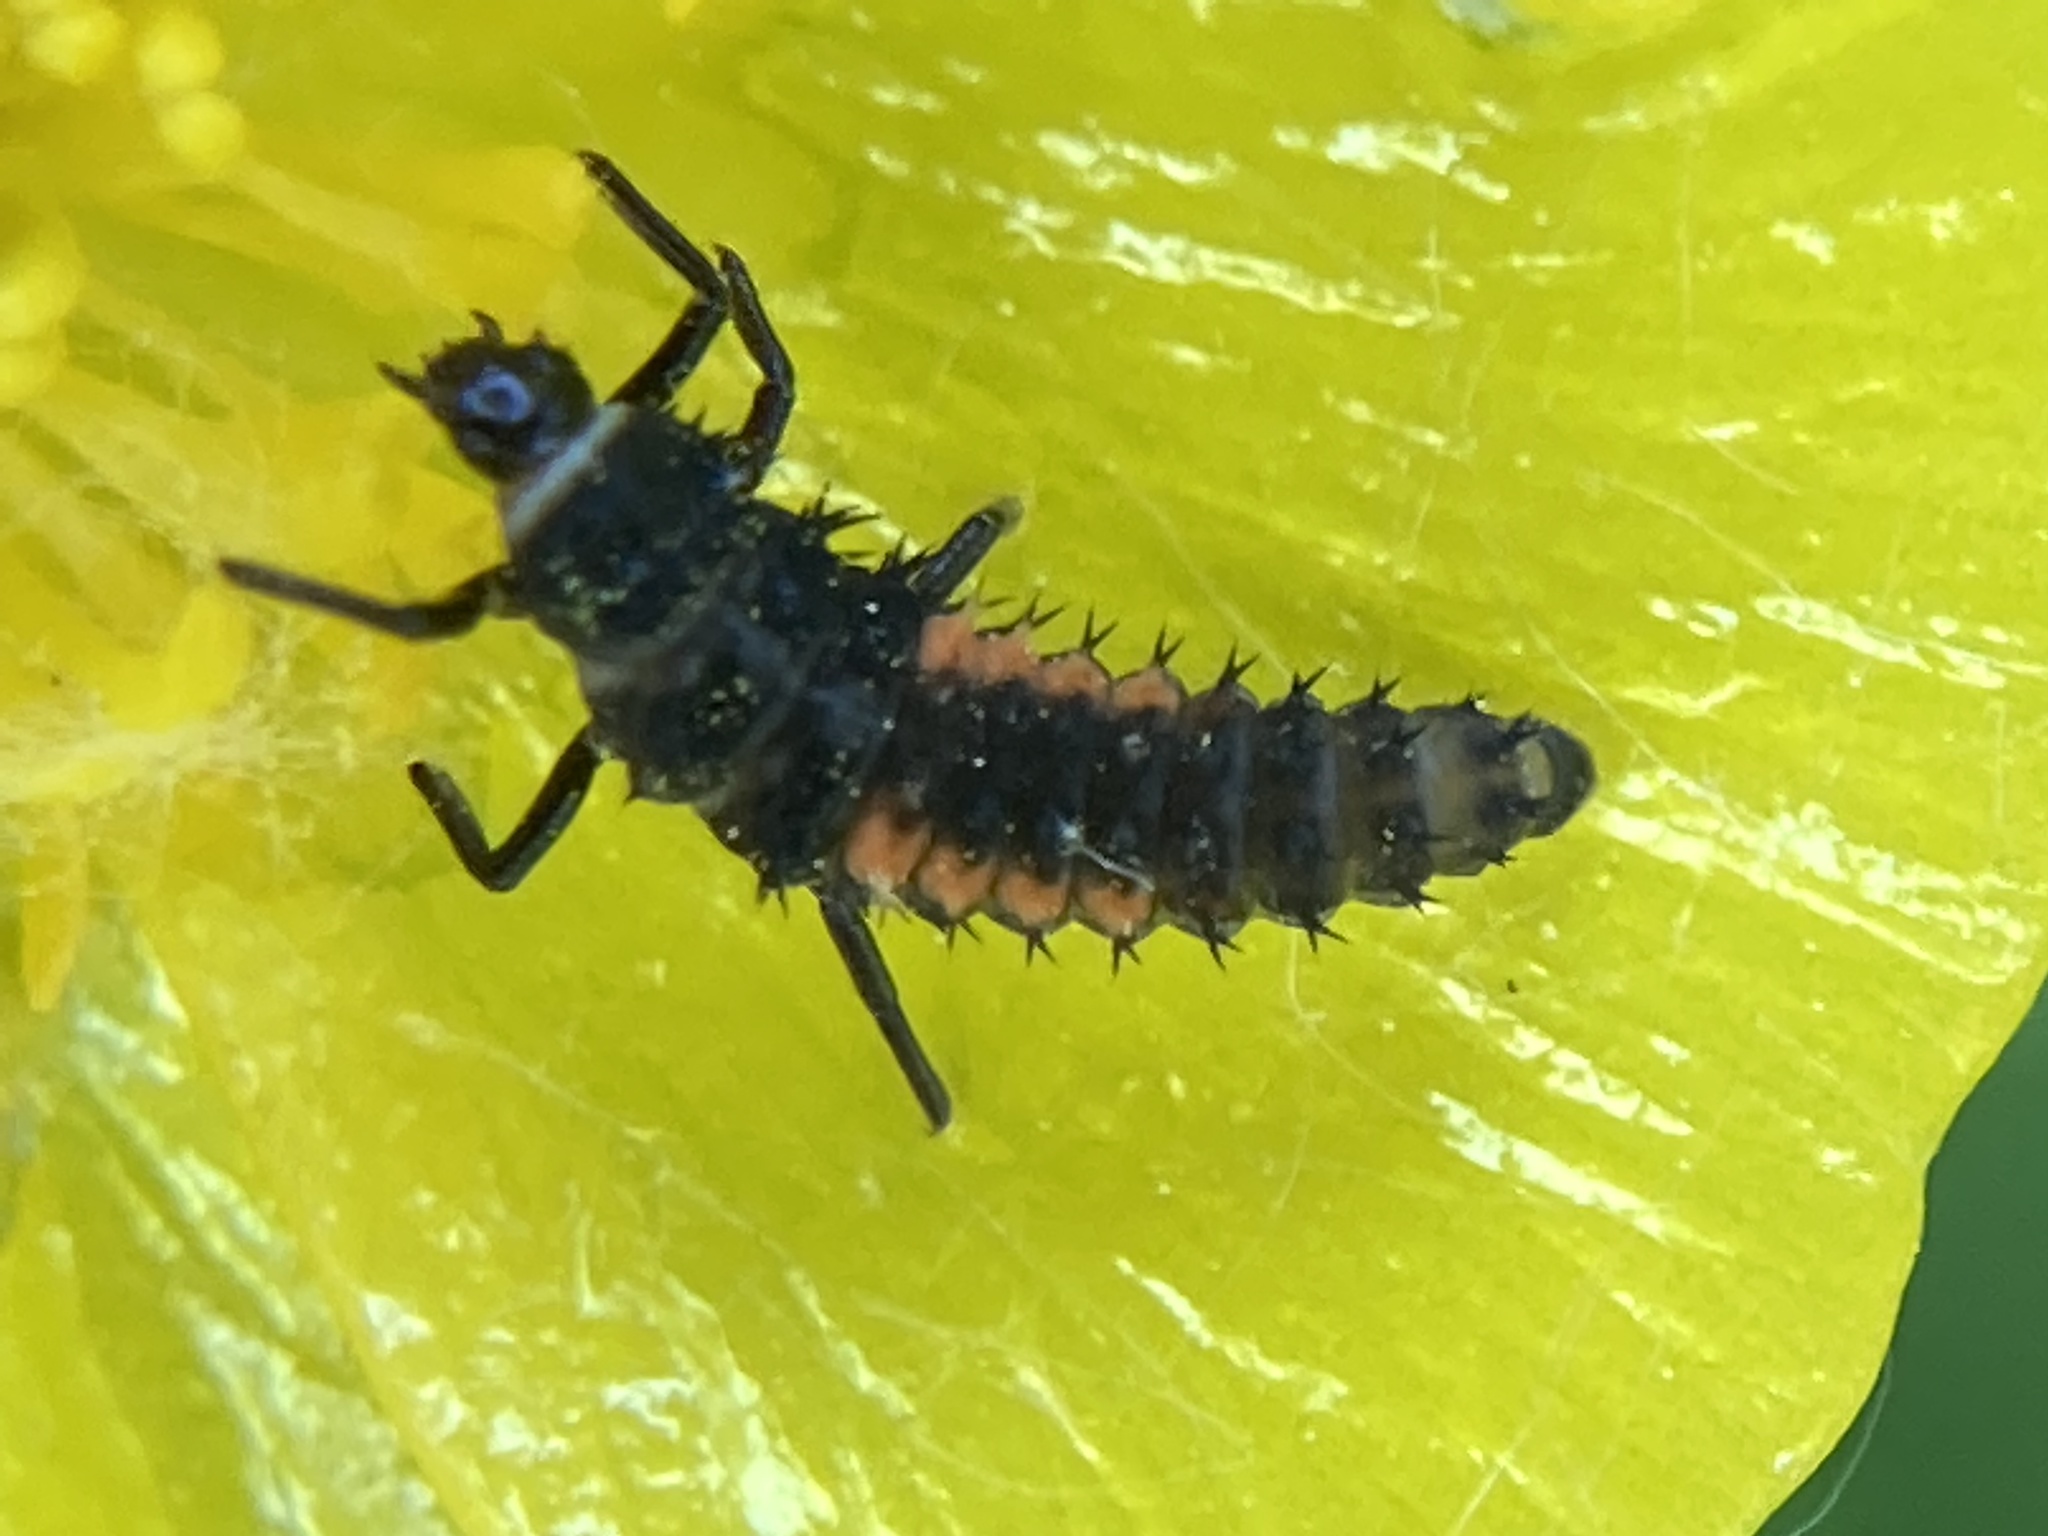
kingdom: Animalia
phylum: Arthropoda
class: Insecta
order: Coleoptera
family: Coccinellidae
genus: Harmonia
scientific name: Harmonia axyridis
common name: Harlequin ladybird
